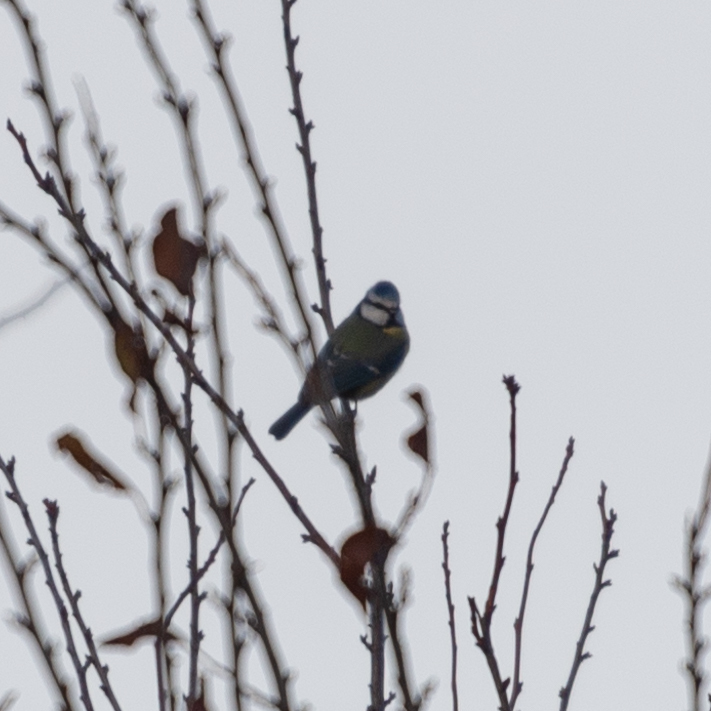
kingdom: Animalia
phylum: Chordata
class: Aves
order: Passeriformes
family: Paridae
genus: Cyanistes
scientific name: Cyanistes caeruleus
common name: Eurasian blue tit
